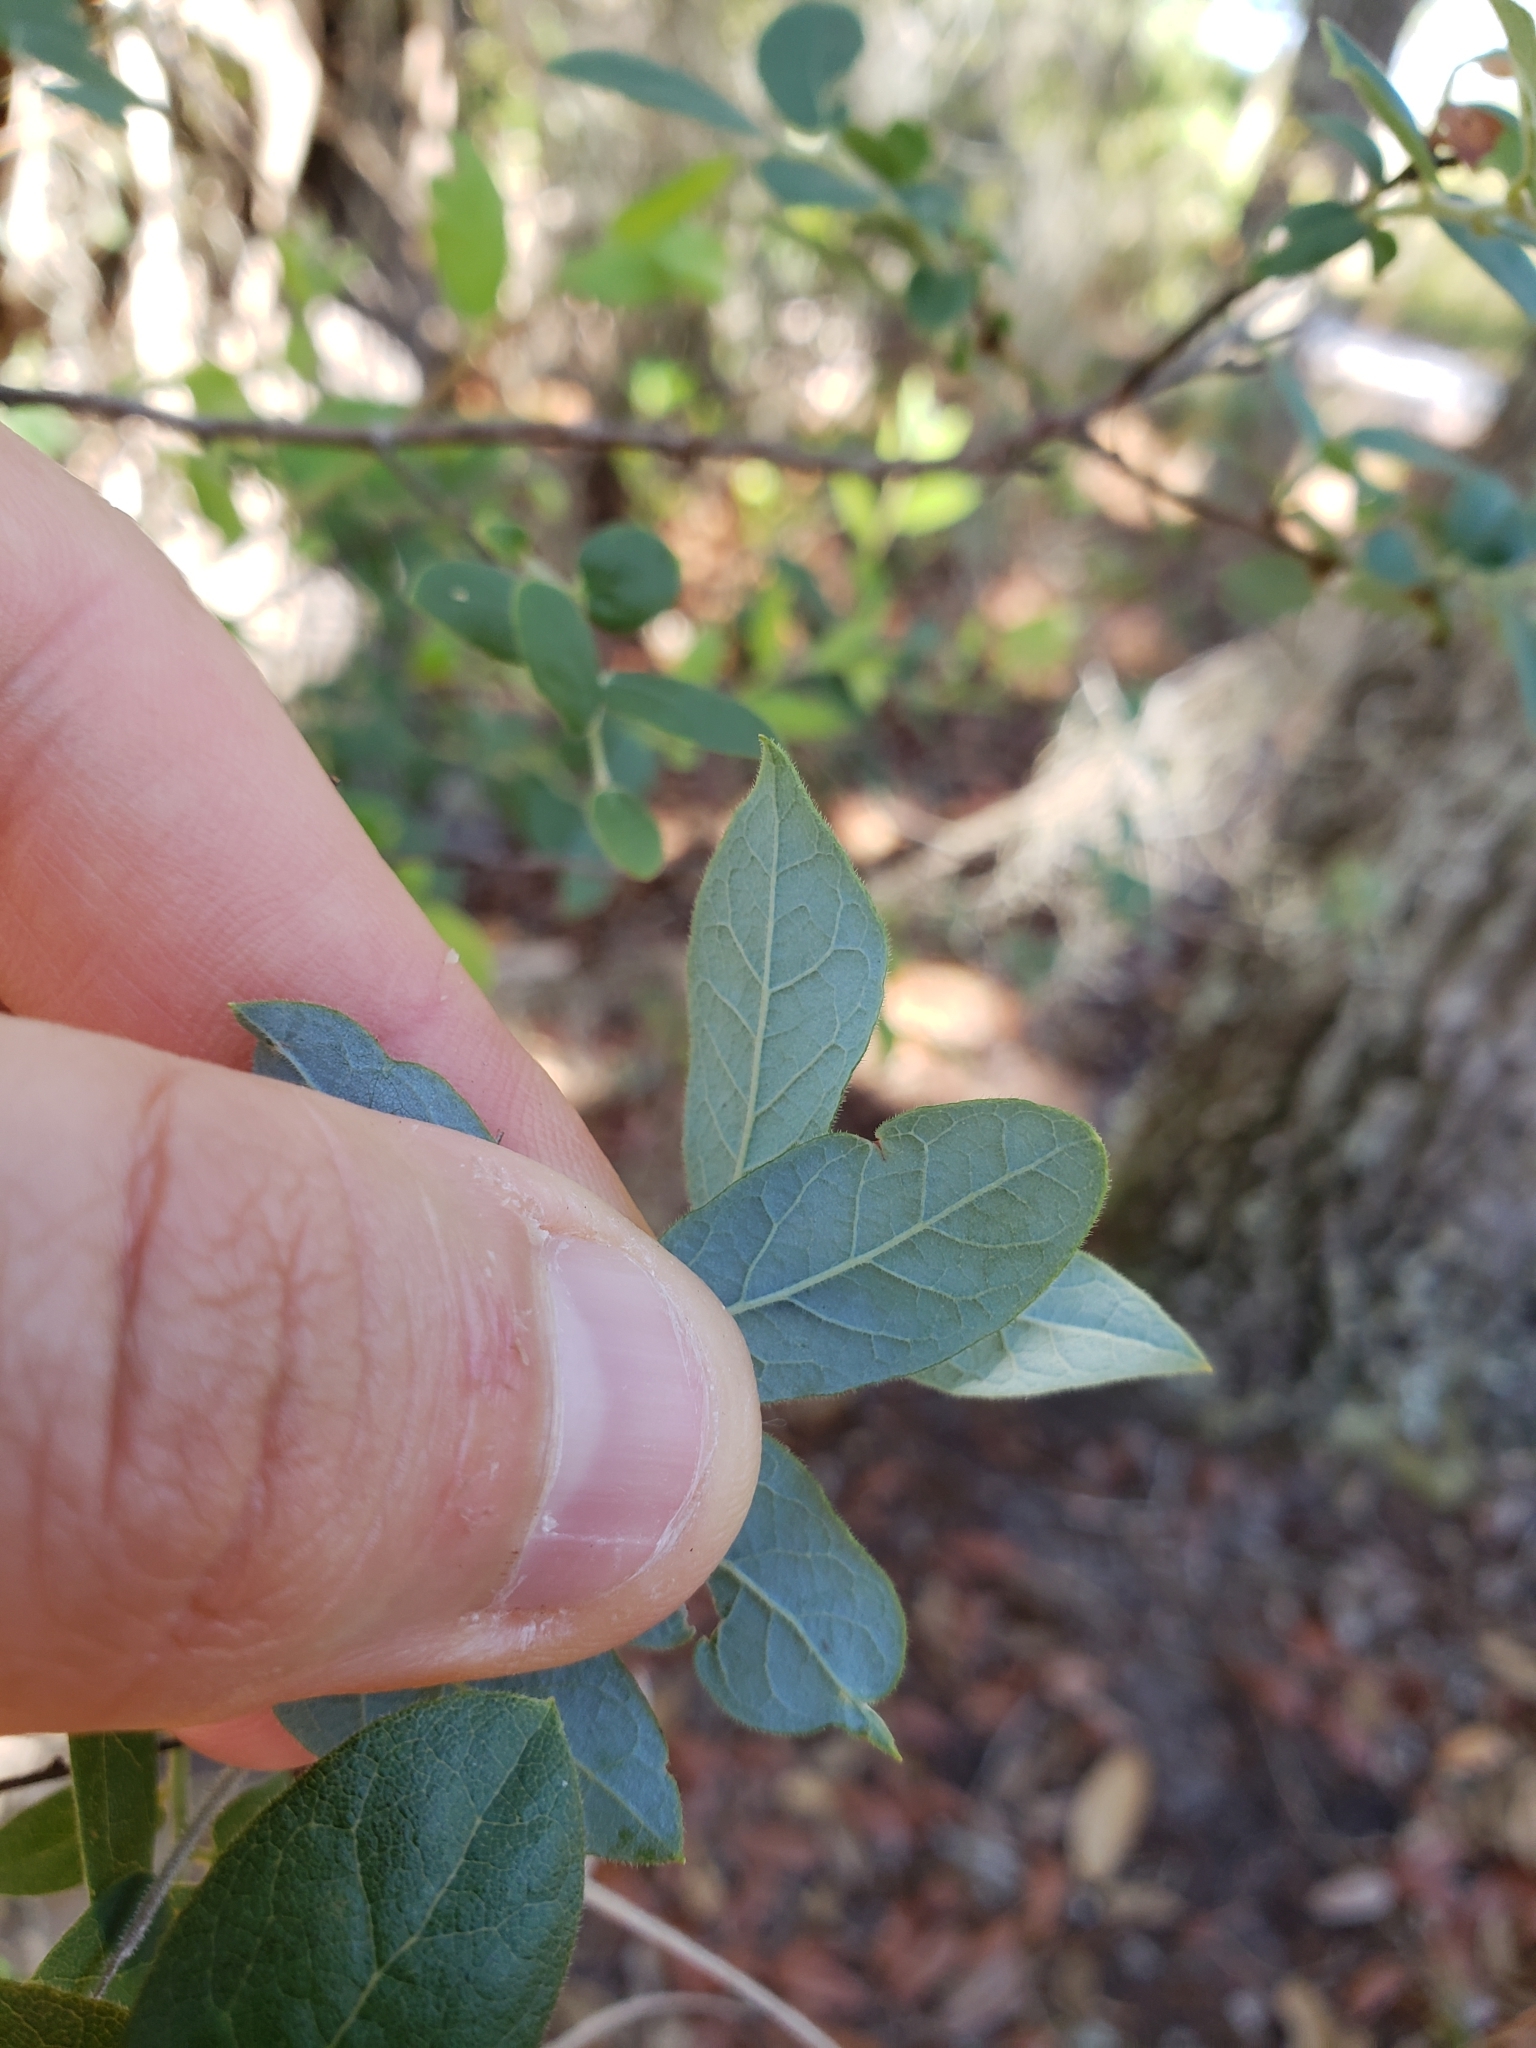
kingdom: Plantae
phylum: Tracheophyta
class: Magnoliopsida
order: Ericales
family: Ericaceae
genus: Vaccinium
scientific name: Vaccinium stamineum
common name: Deerberry
